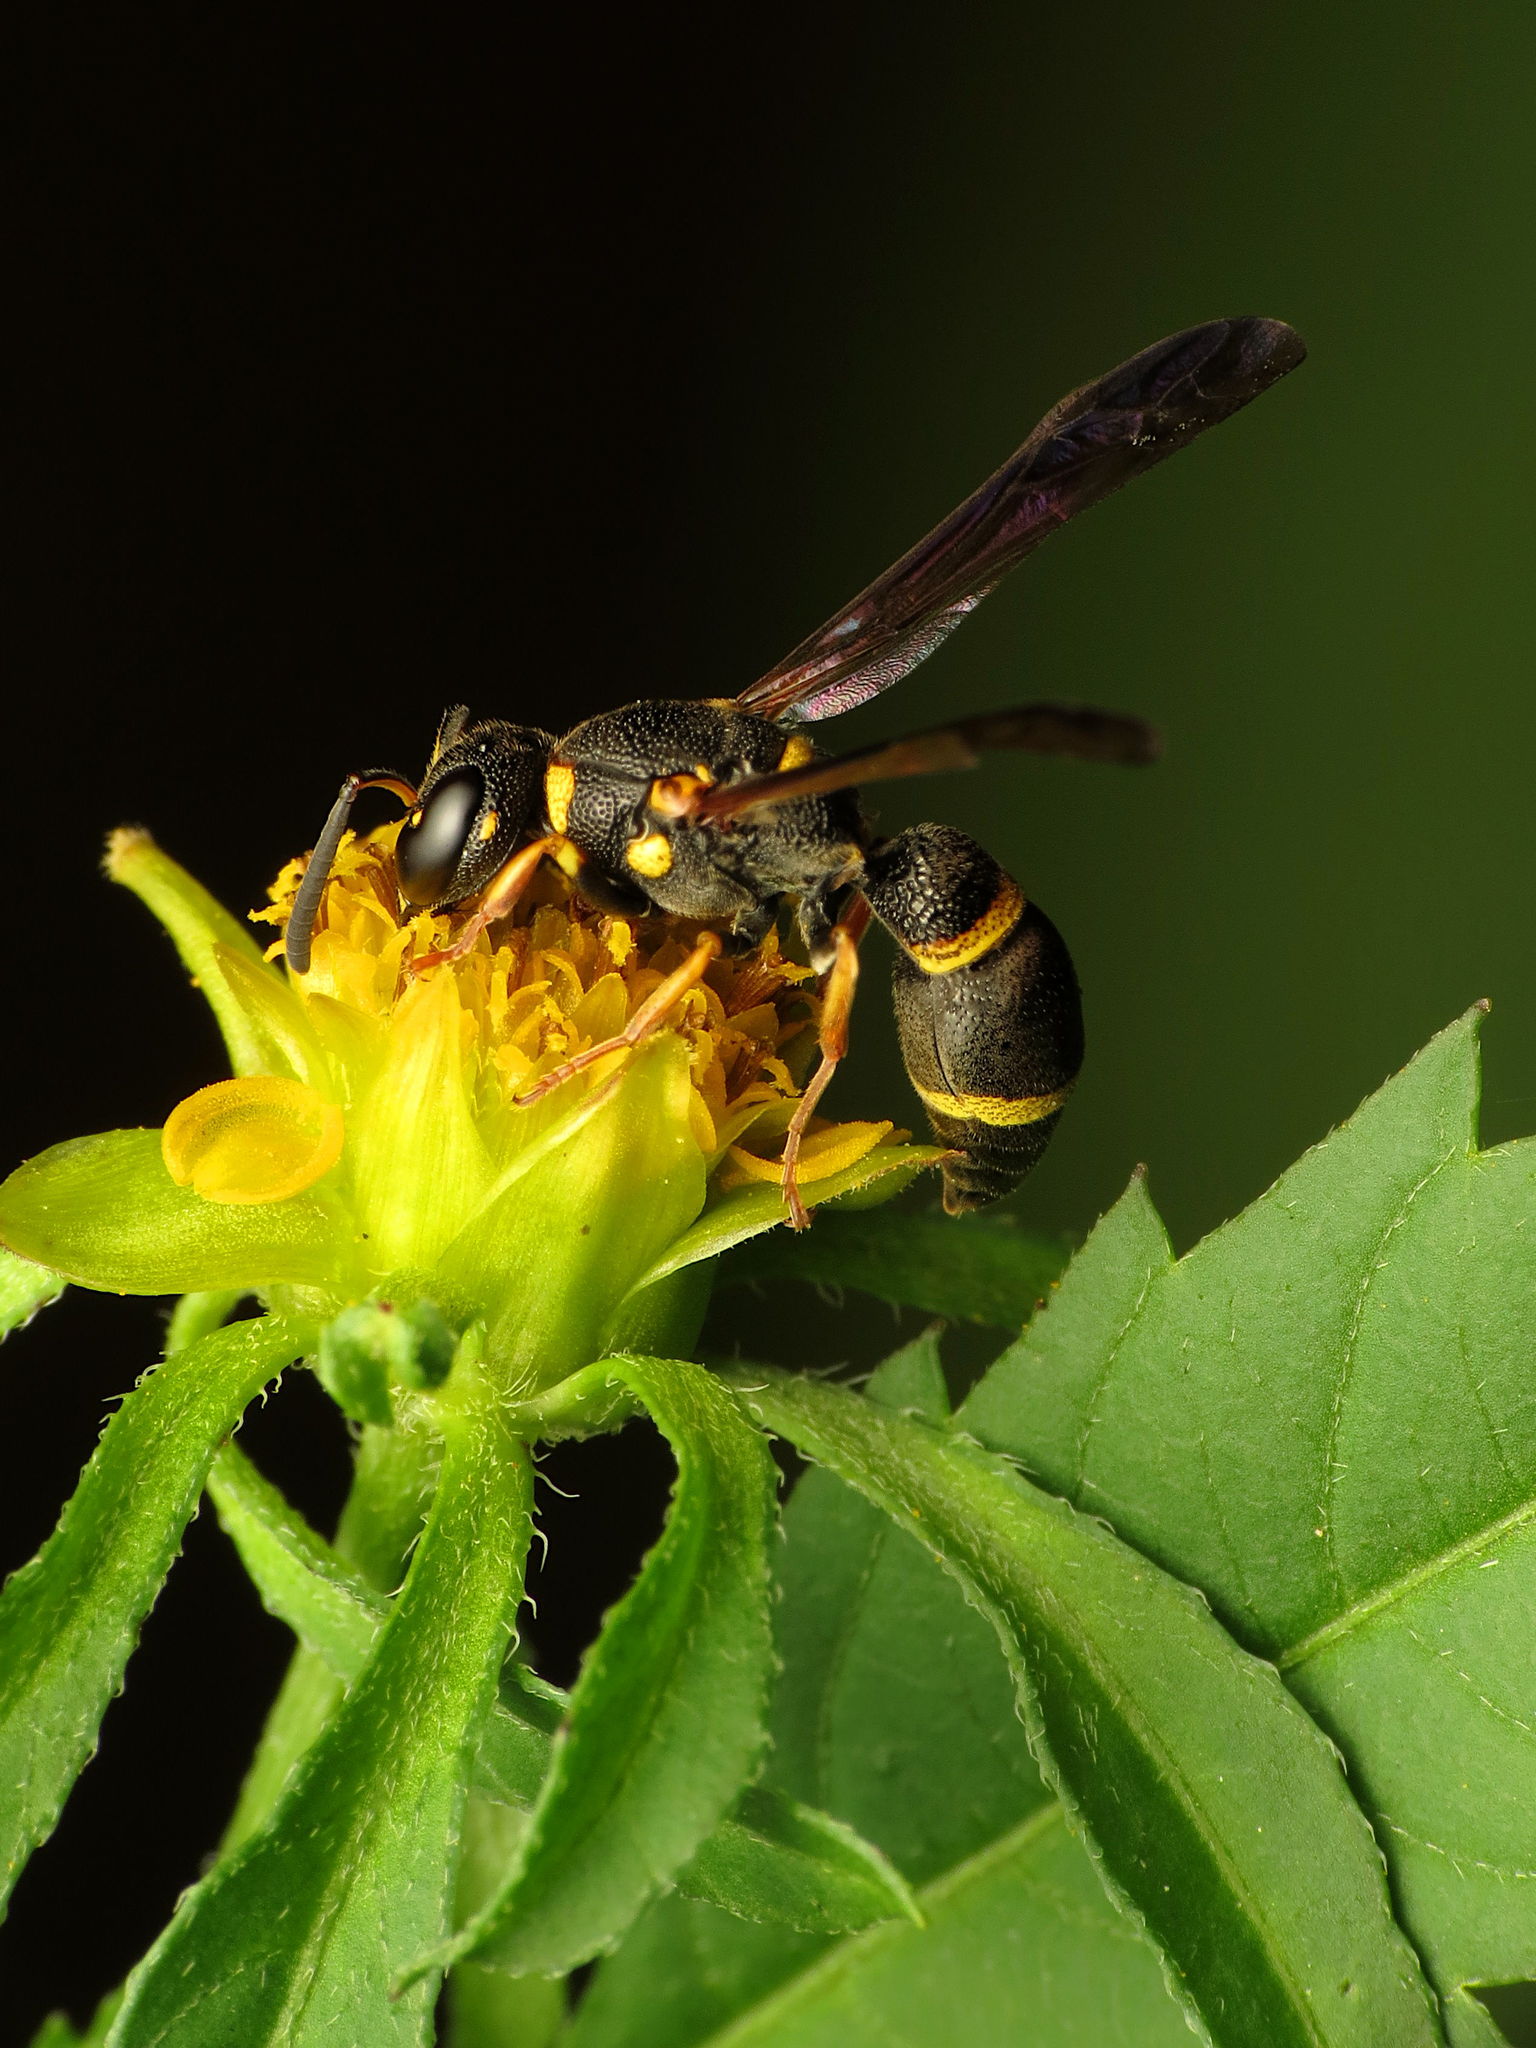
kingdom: Animalia
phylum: Arthropoda
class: Insecta
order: Hymenoptera
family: Eumenidae
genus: Parancistrocerus
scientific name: Parancistrocerus perennis
